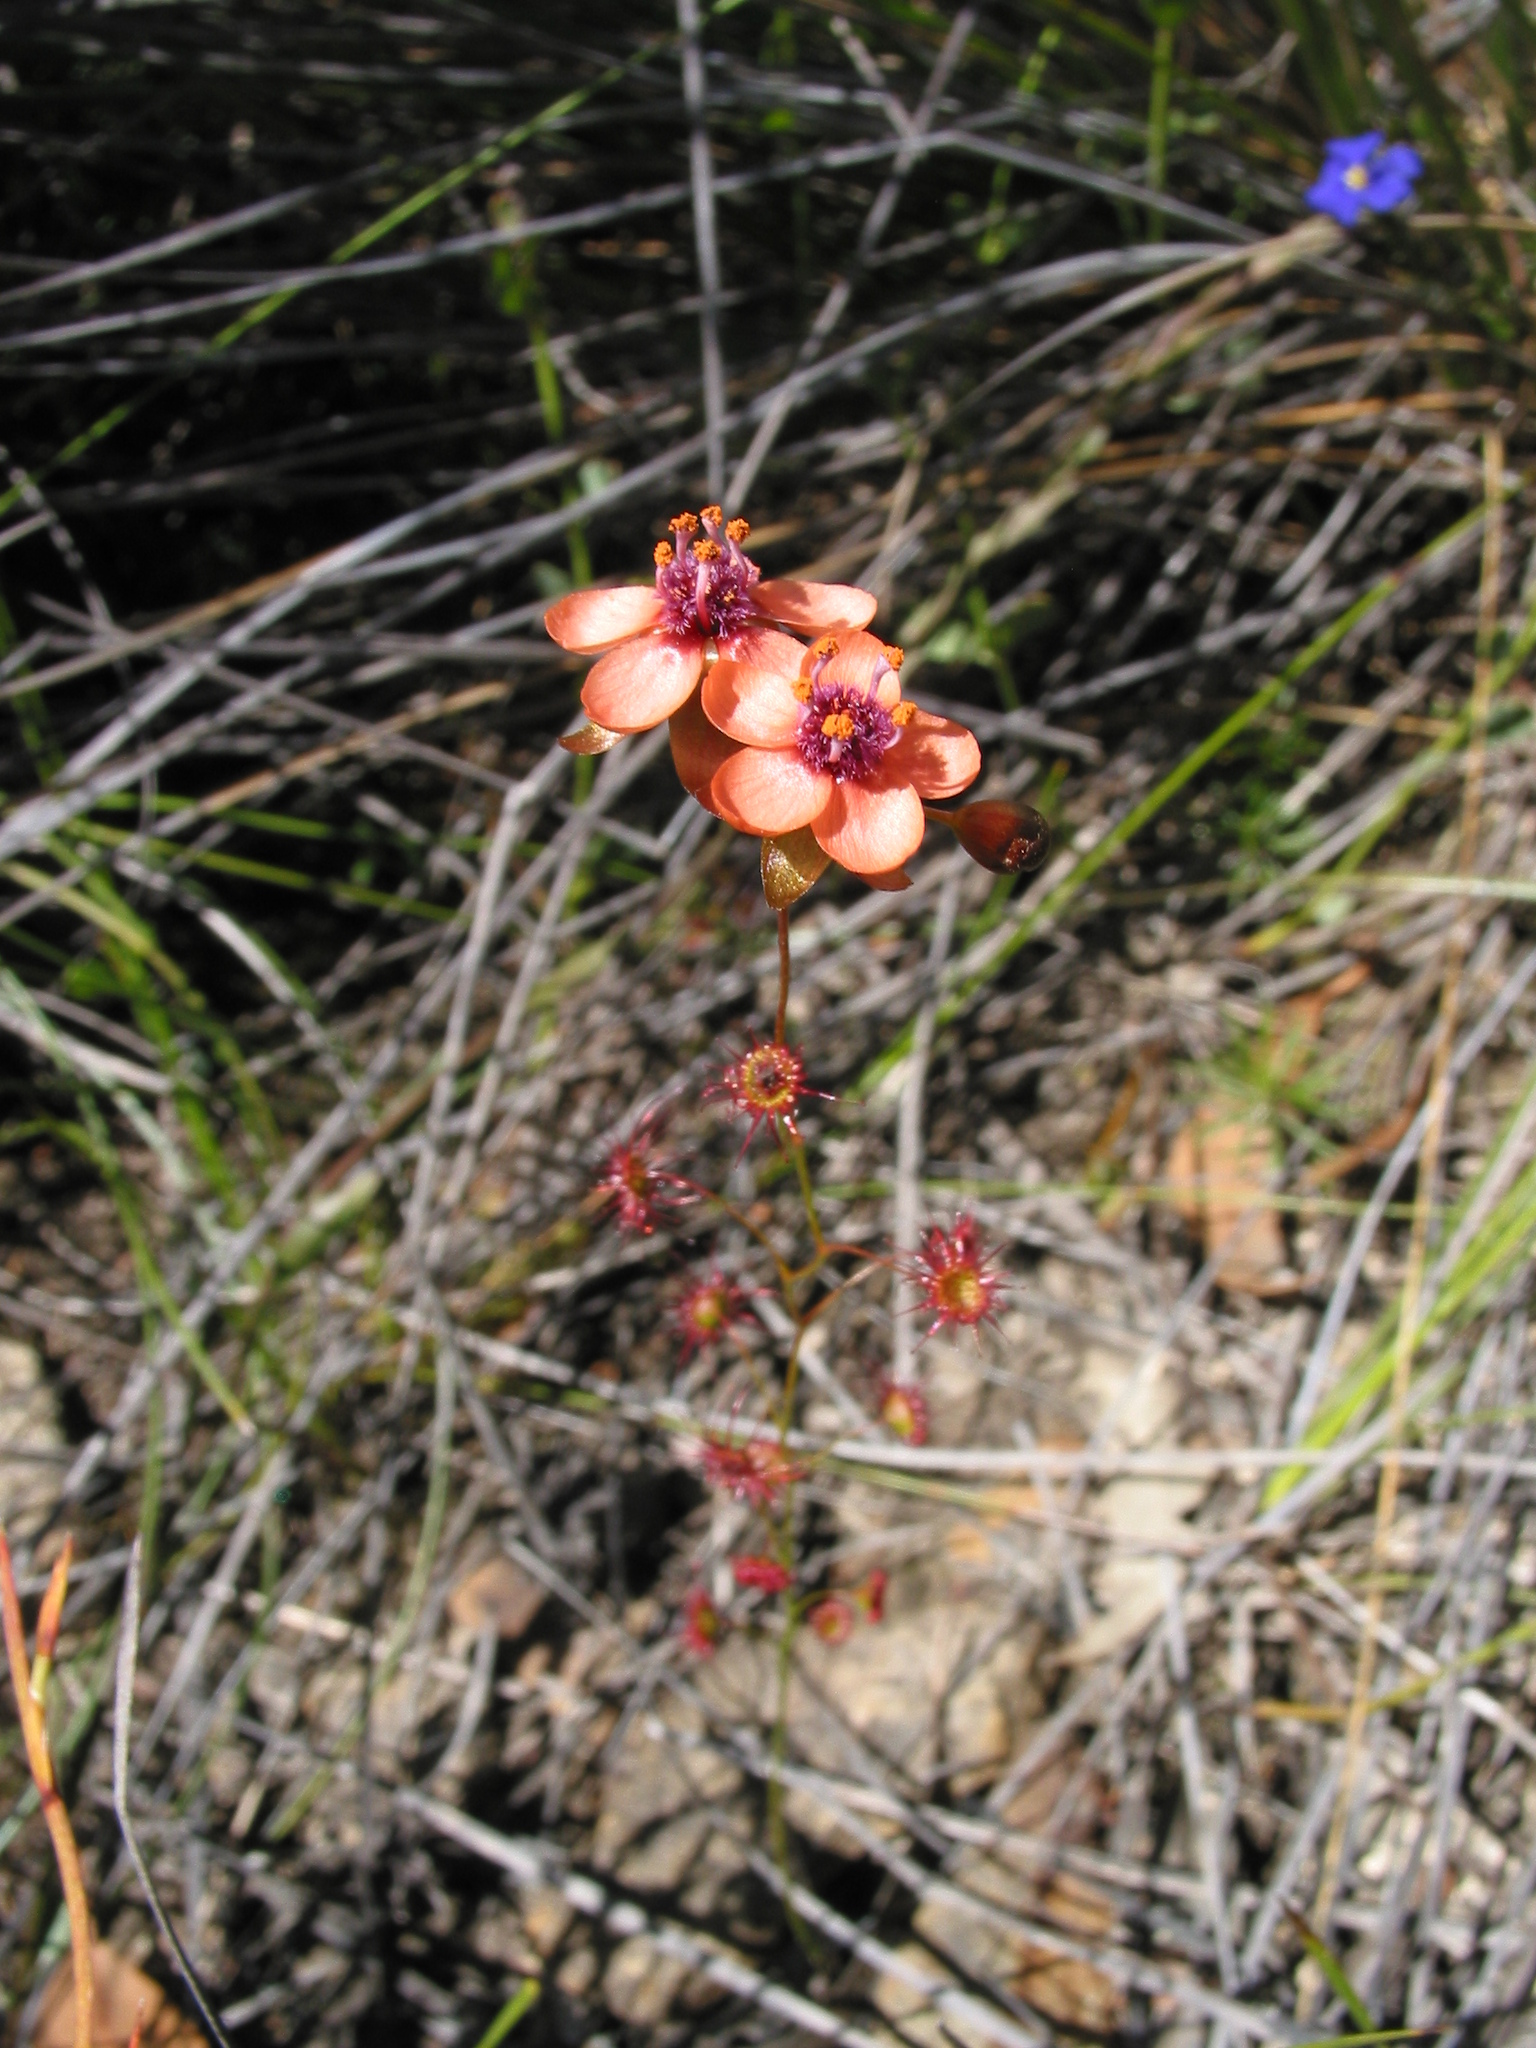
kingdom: Plantae
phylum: Tracheophyta
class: Magnoliopsida
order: Caryophyllales
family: Droseraceae
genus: Drosera
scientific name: Drosera microphylla
